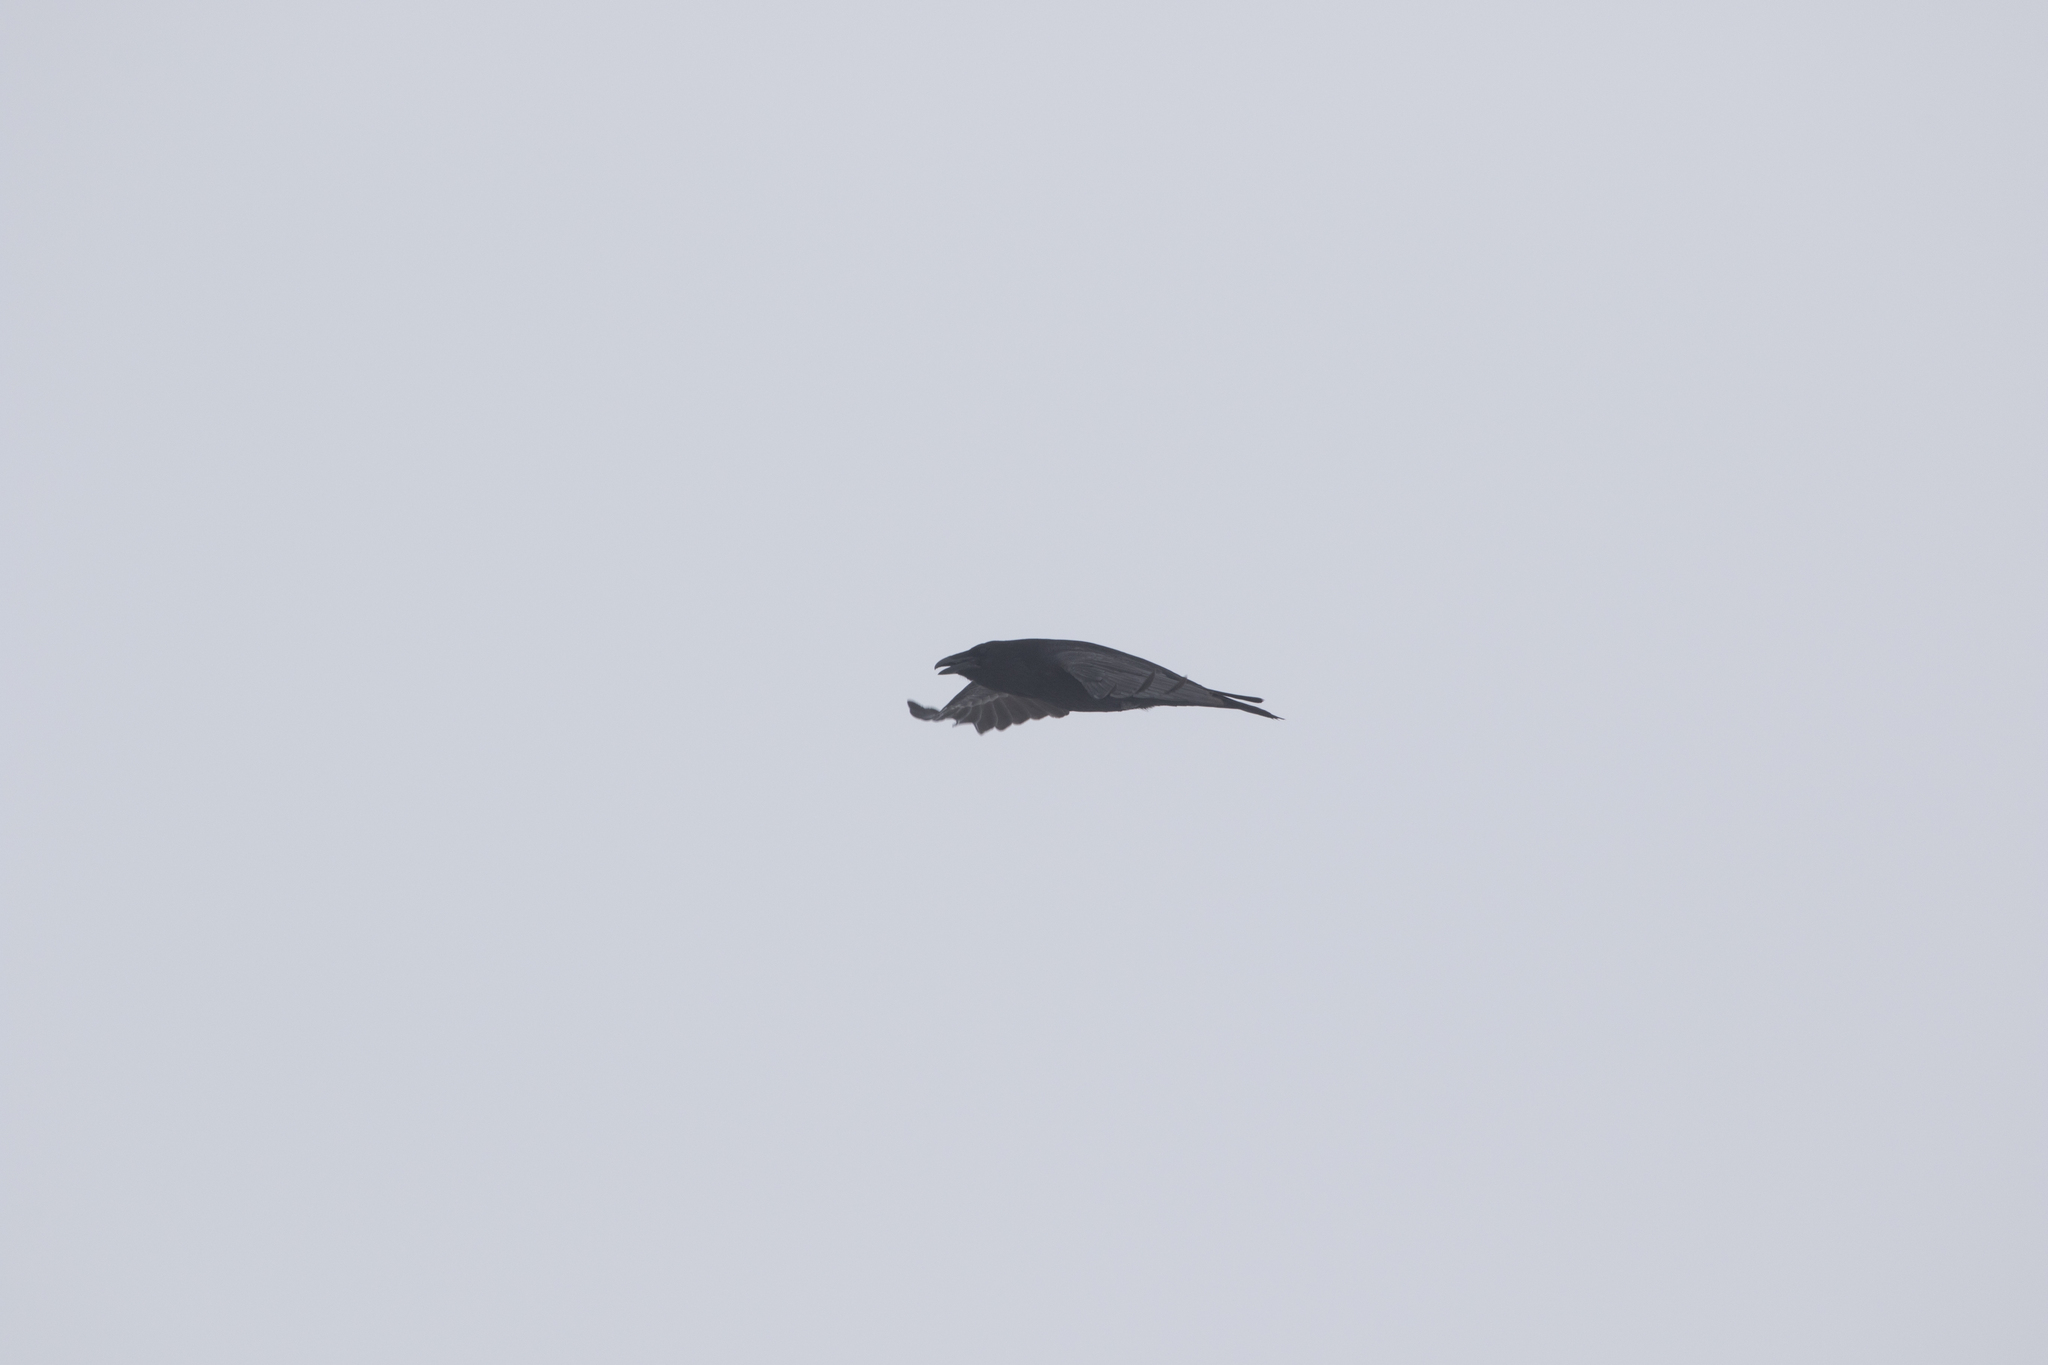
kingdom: Animalia
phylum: Chordata
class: Aves
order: Passeriformes
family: Corvidae
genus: Corvus
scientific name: Corvus corax
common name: Common raven
